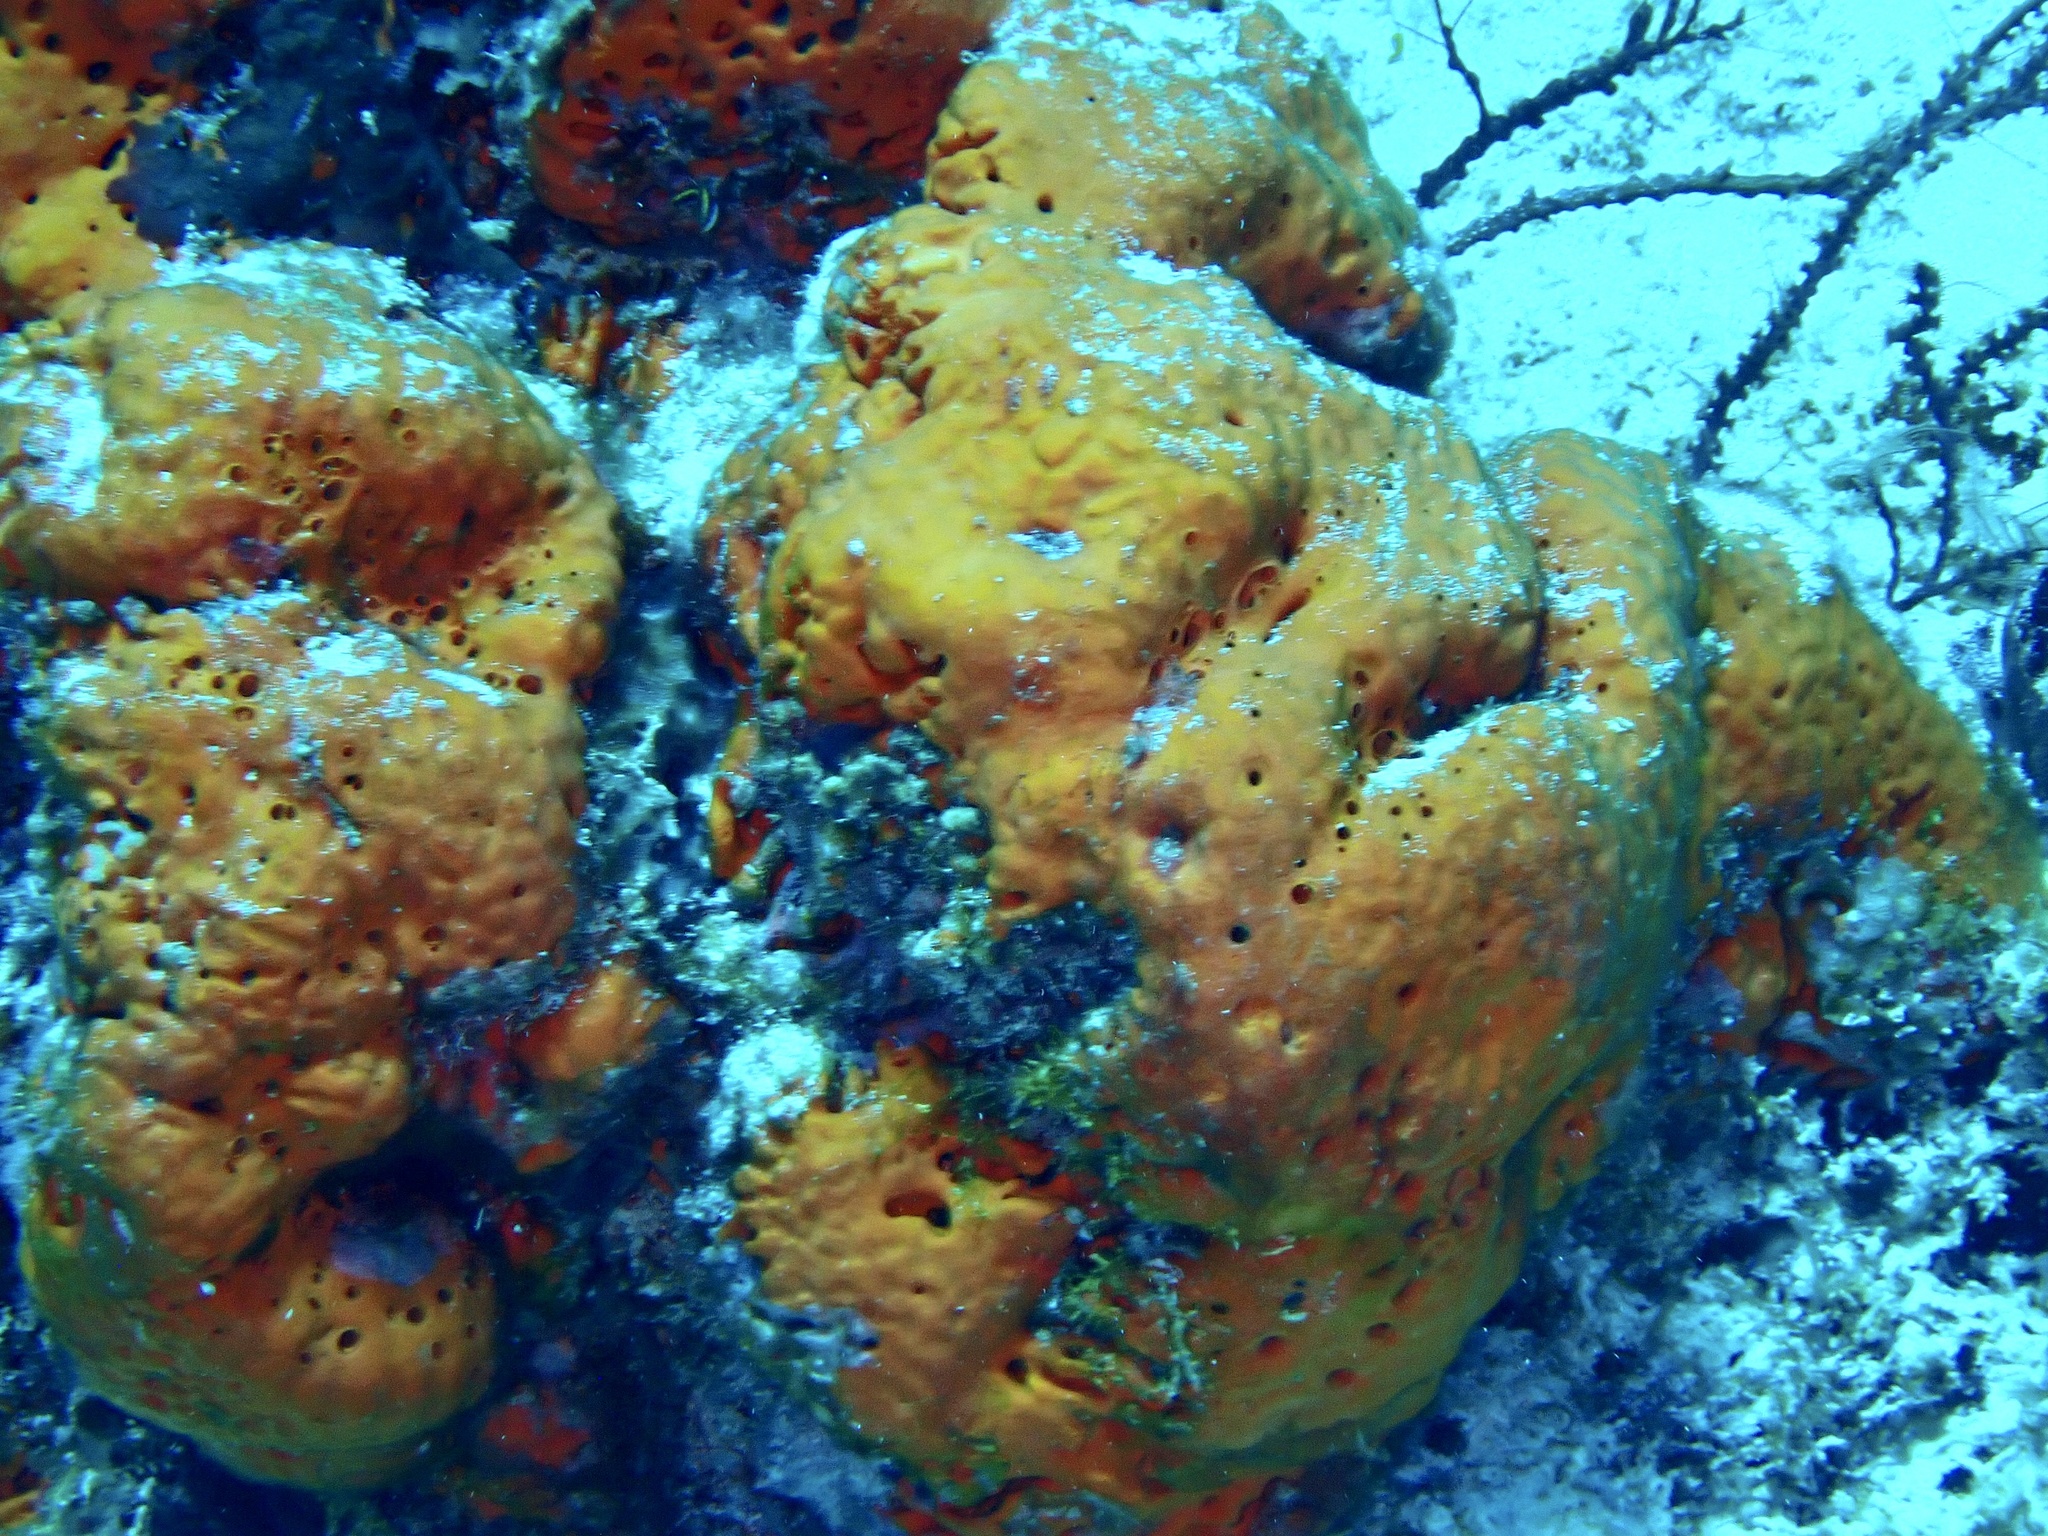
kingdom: Animalia
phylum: Porifera
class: Demospongiae
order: Agelasida
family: Agelasidae
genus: Agelas
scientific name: Agelas clathrodes
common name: Orange elephant ear sponge
